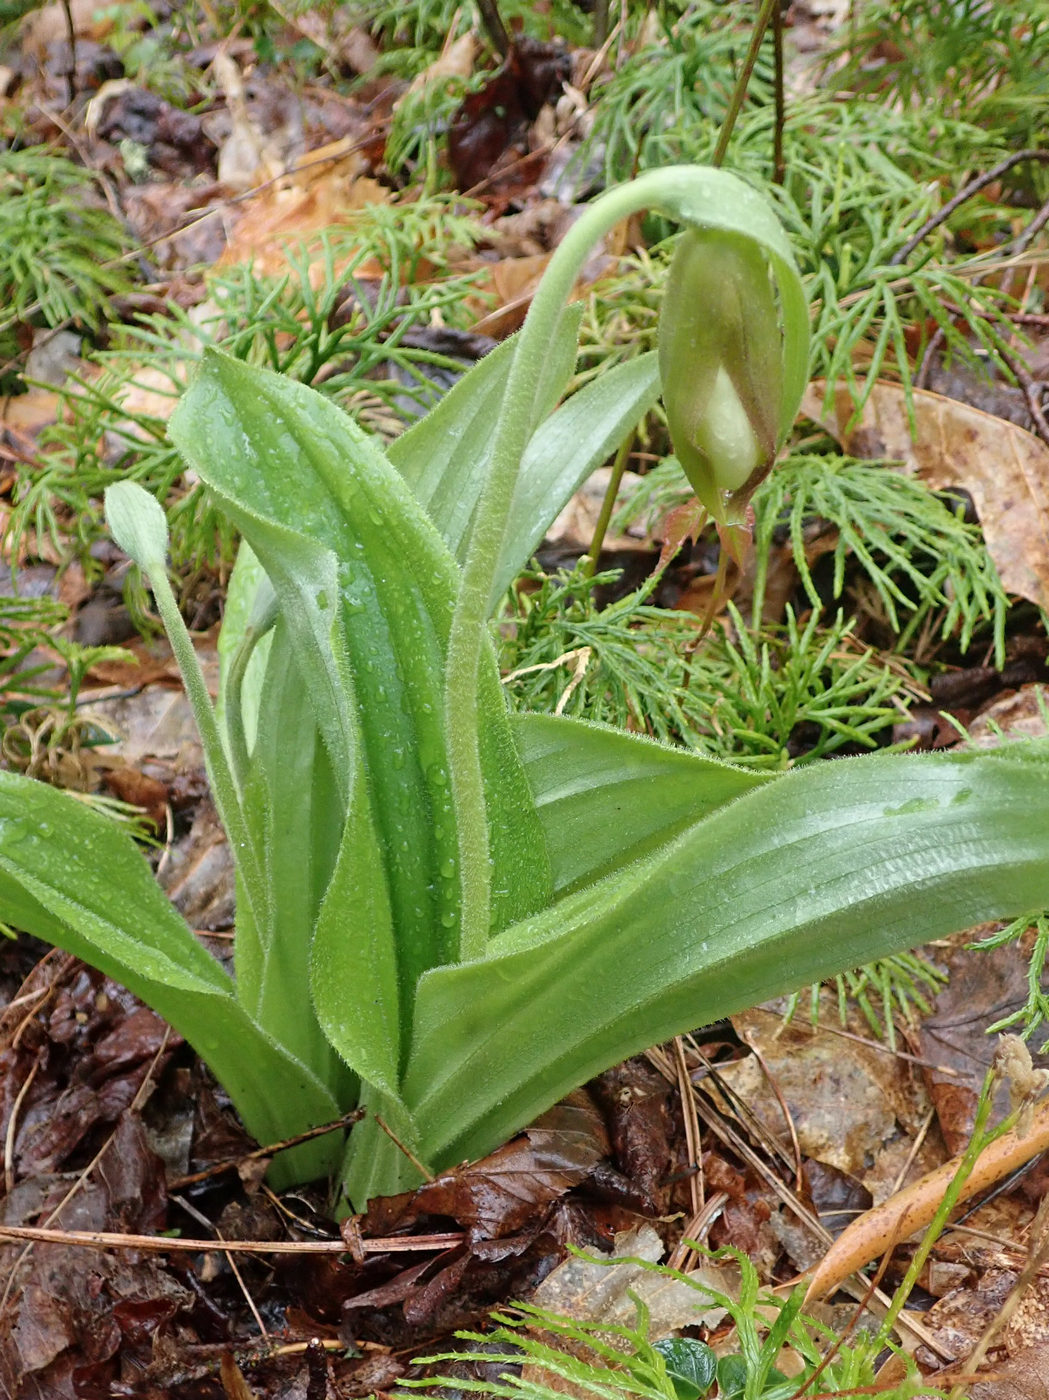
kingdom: Plantae
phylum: Tracheophyta
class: Liliopsida
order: Asparagales
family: Orchidaceae
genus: Cypripedium
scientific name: Cypripedium acaule
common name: Pink lady's-slipper
